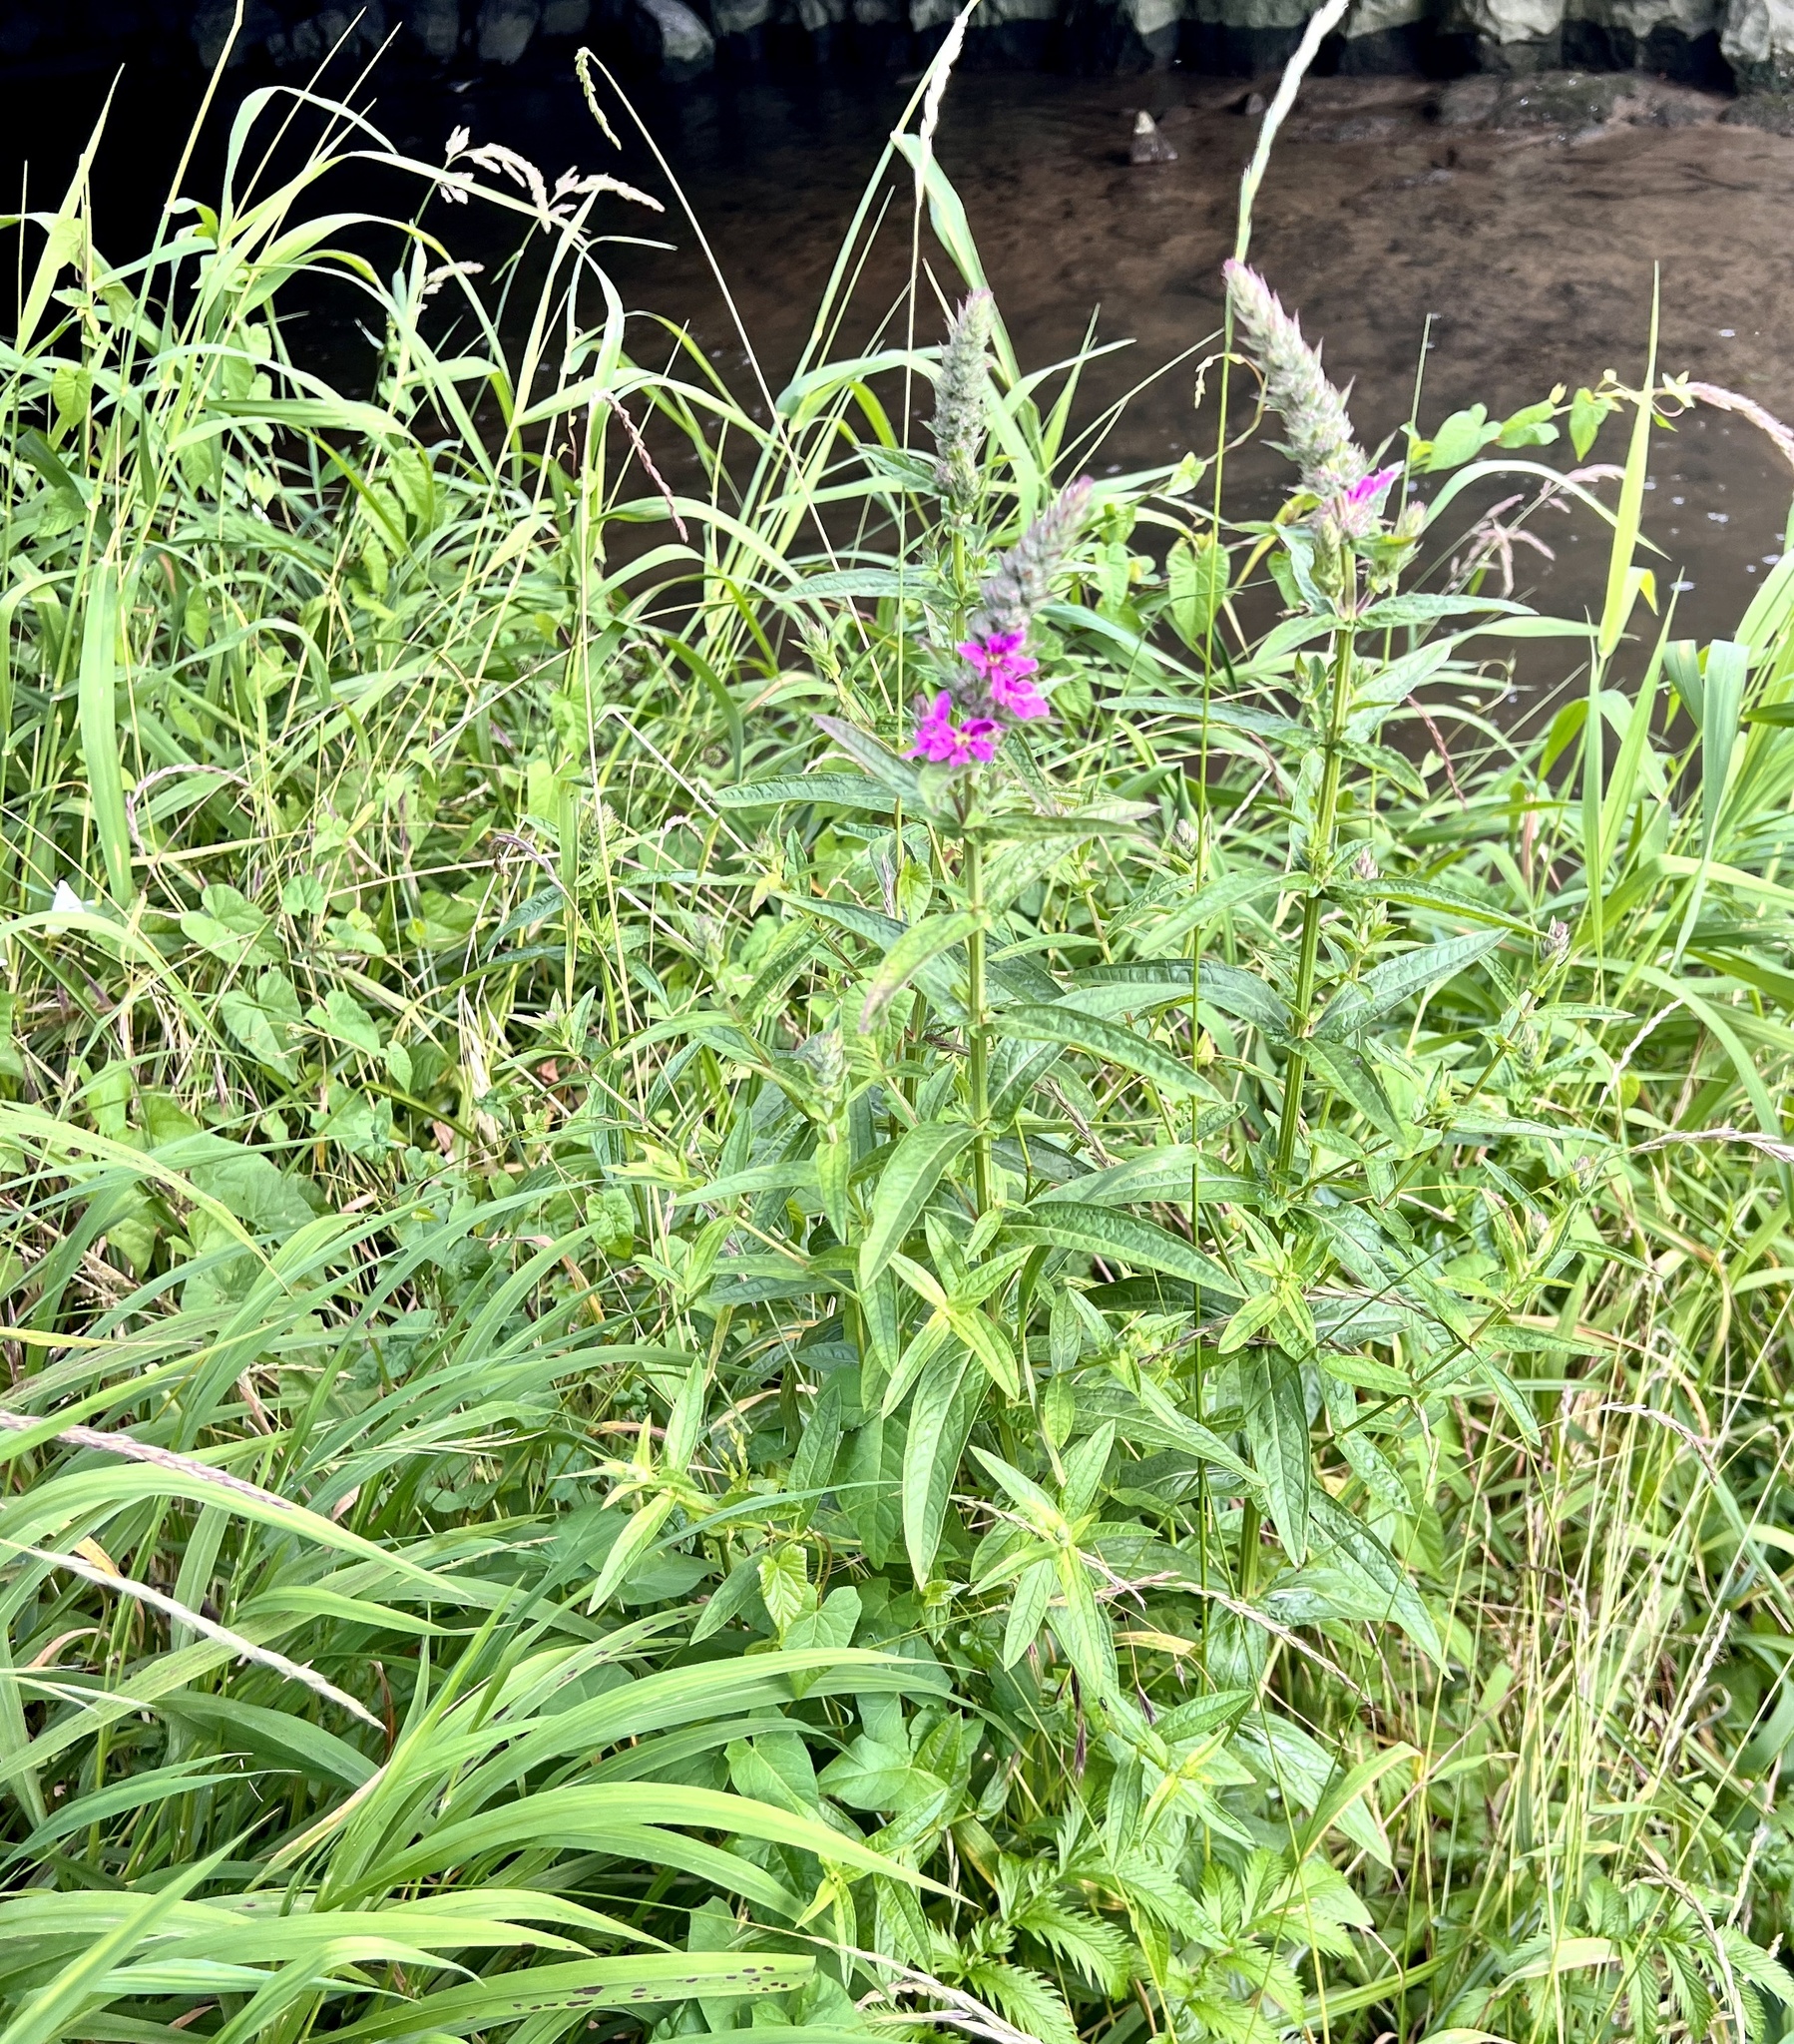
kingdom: Plantae
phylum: Tracheophyta
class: Magnoliopsida
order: Myrtales
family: Lythraceae
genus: Lythrum
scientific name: Lythrum salicaria
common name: Purple loosestrife
